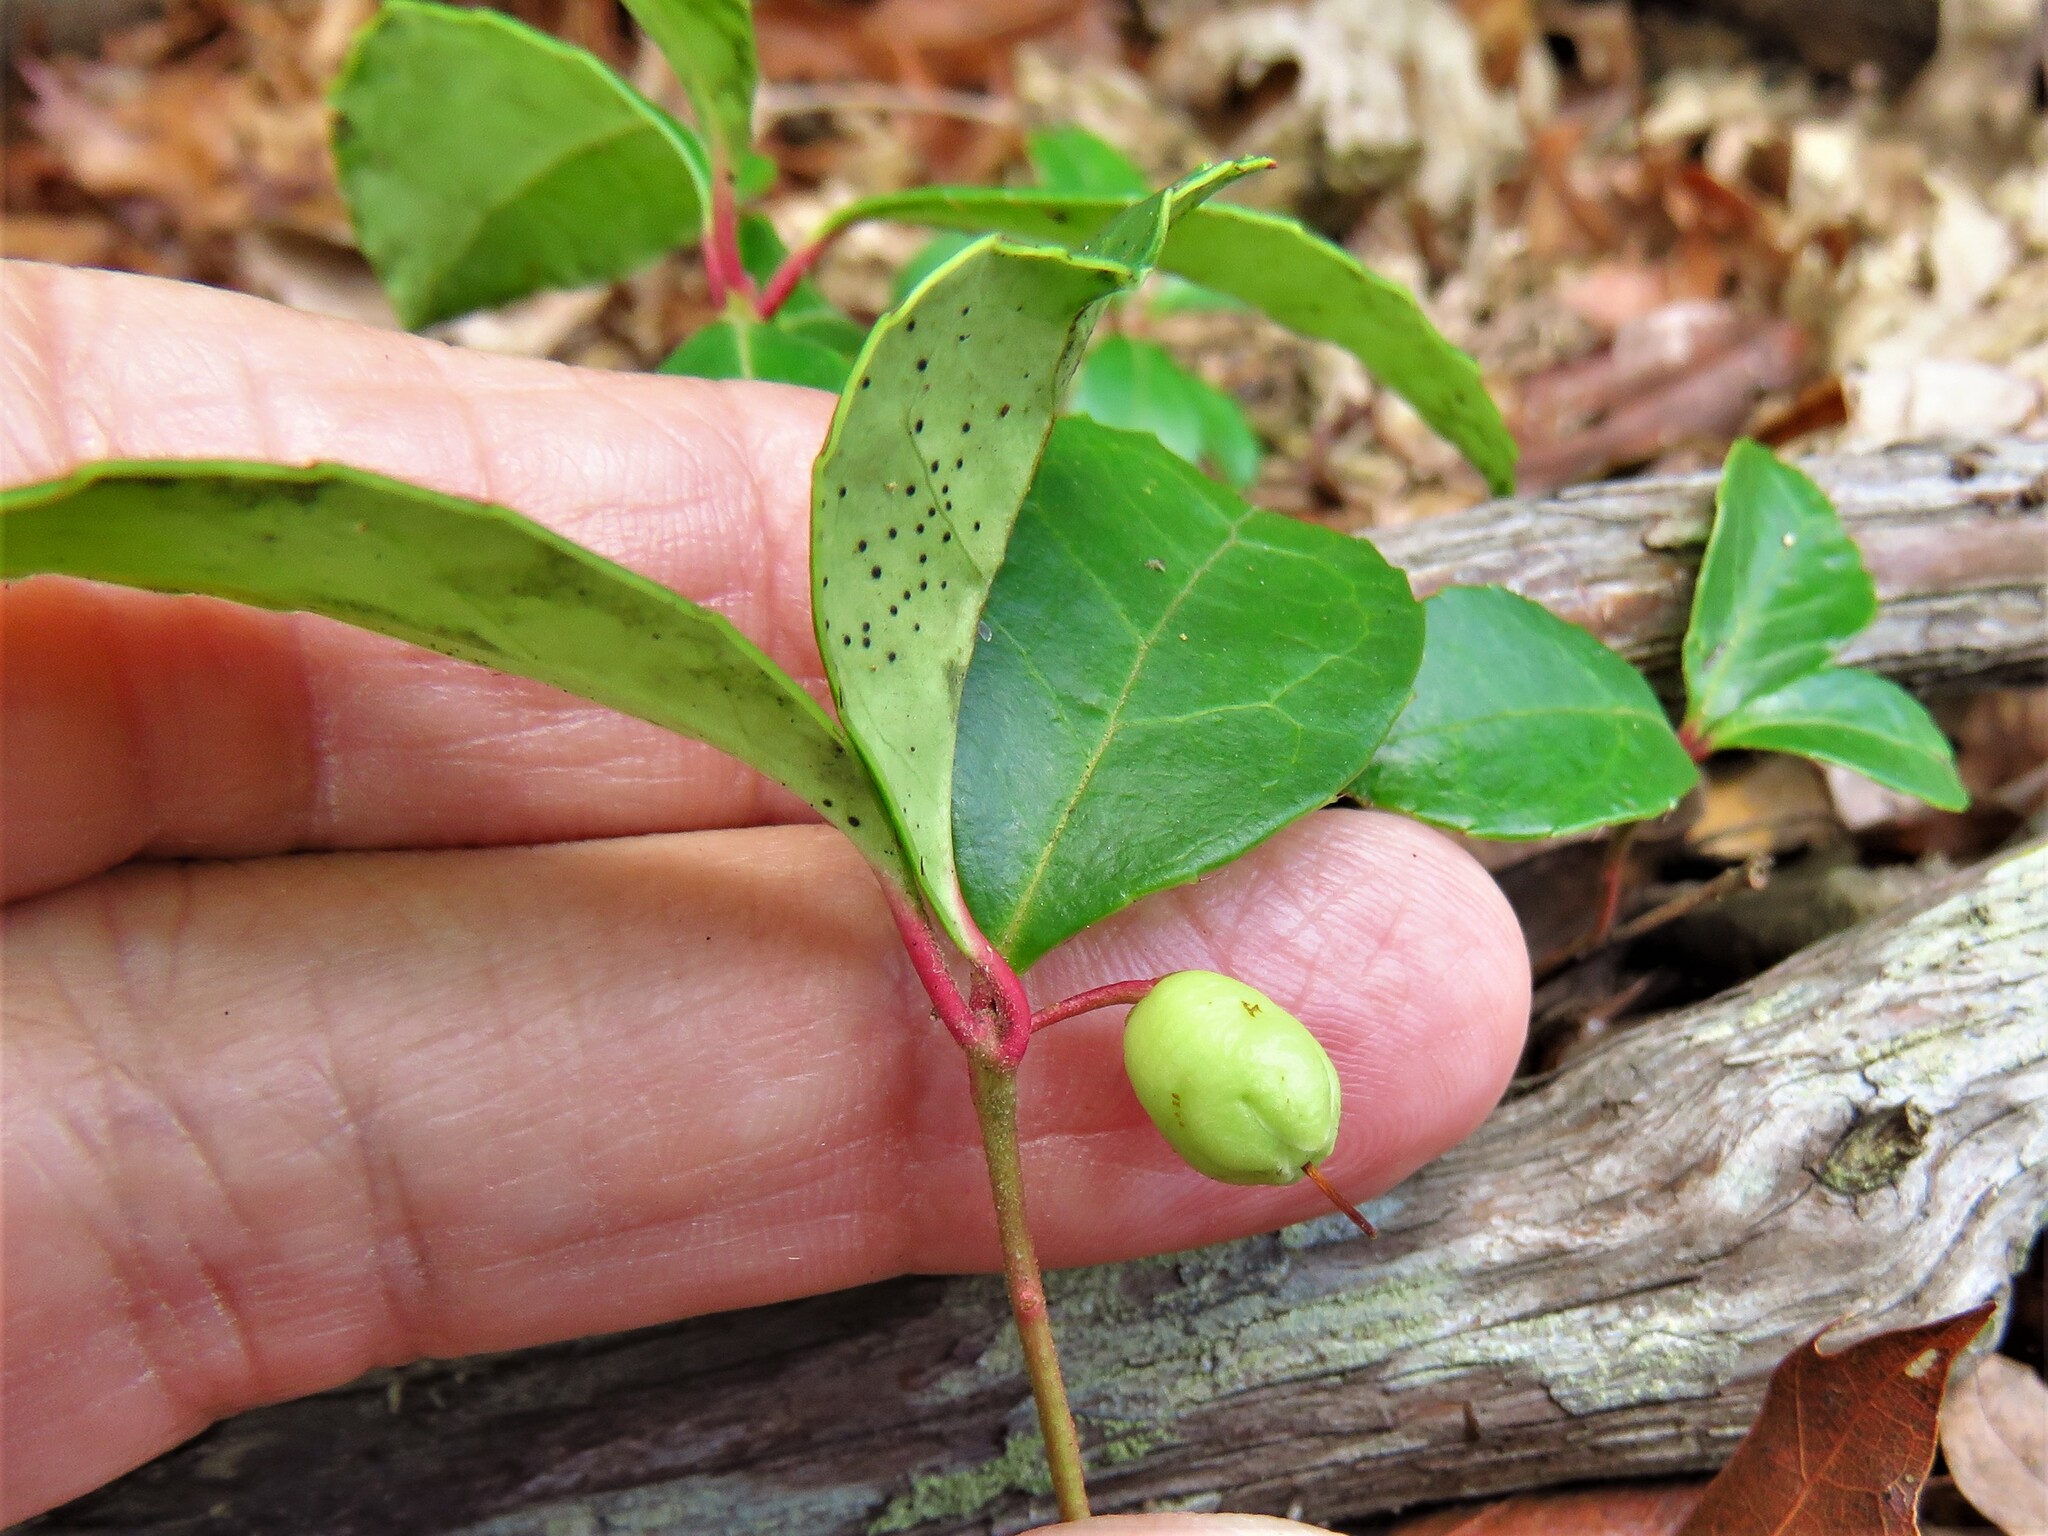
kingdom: Plantae
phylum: Tracheophyta
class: Magnoliopsida
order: Ericales
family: Ericaceae
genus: Gaultheria
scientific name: Gaultheria procumbens
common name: Checkerberry
